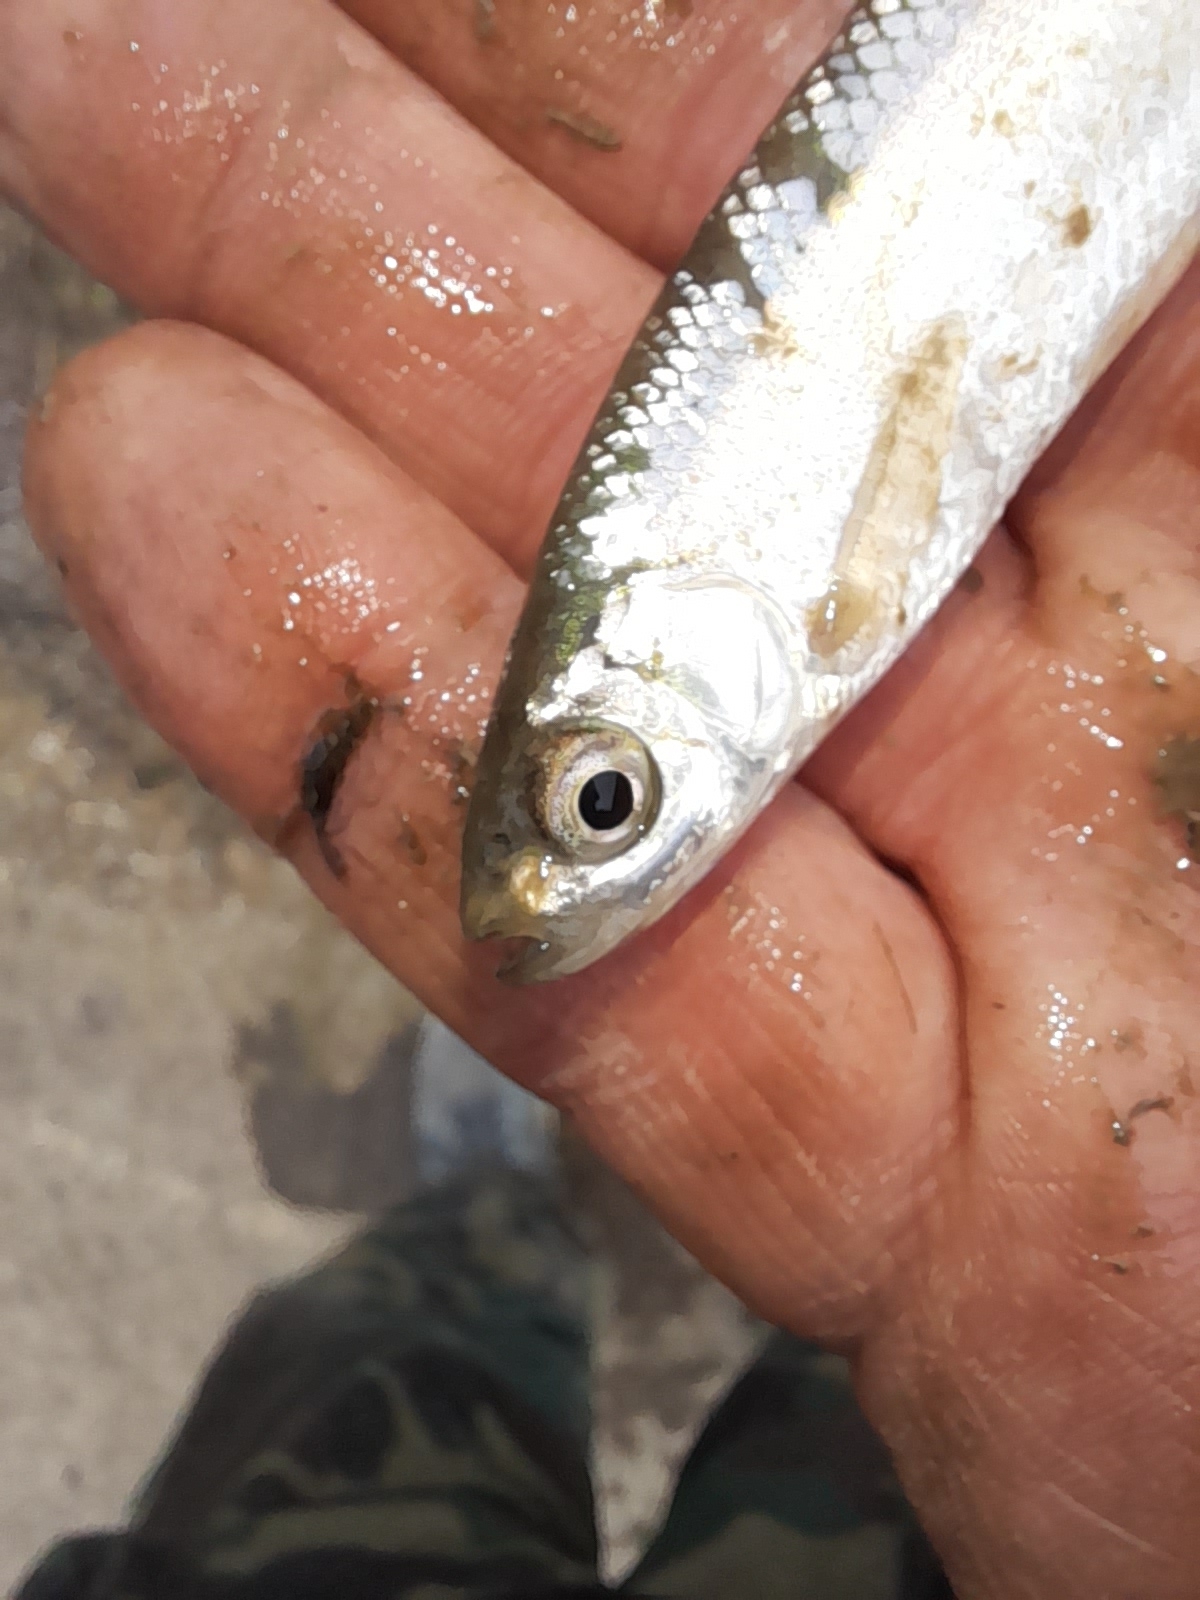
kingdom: Animalia
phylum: Chordata
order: Cypriniformes
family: Cyprinidae
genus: Alburnus
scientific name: Alburnus arborella
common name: Alborella
